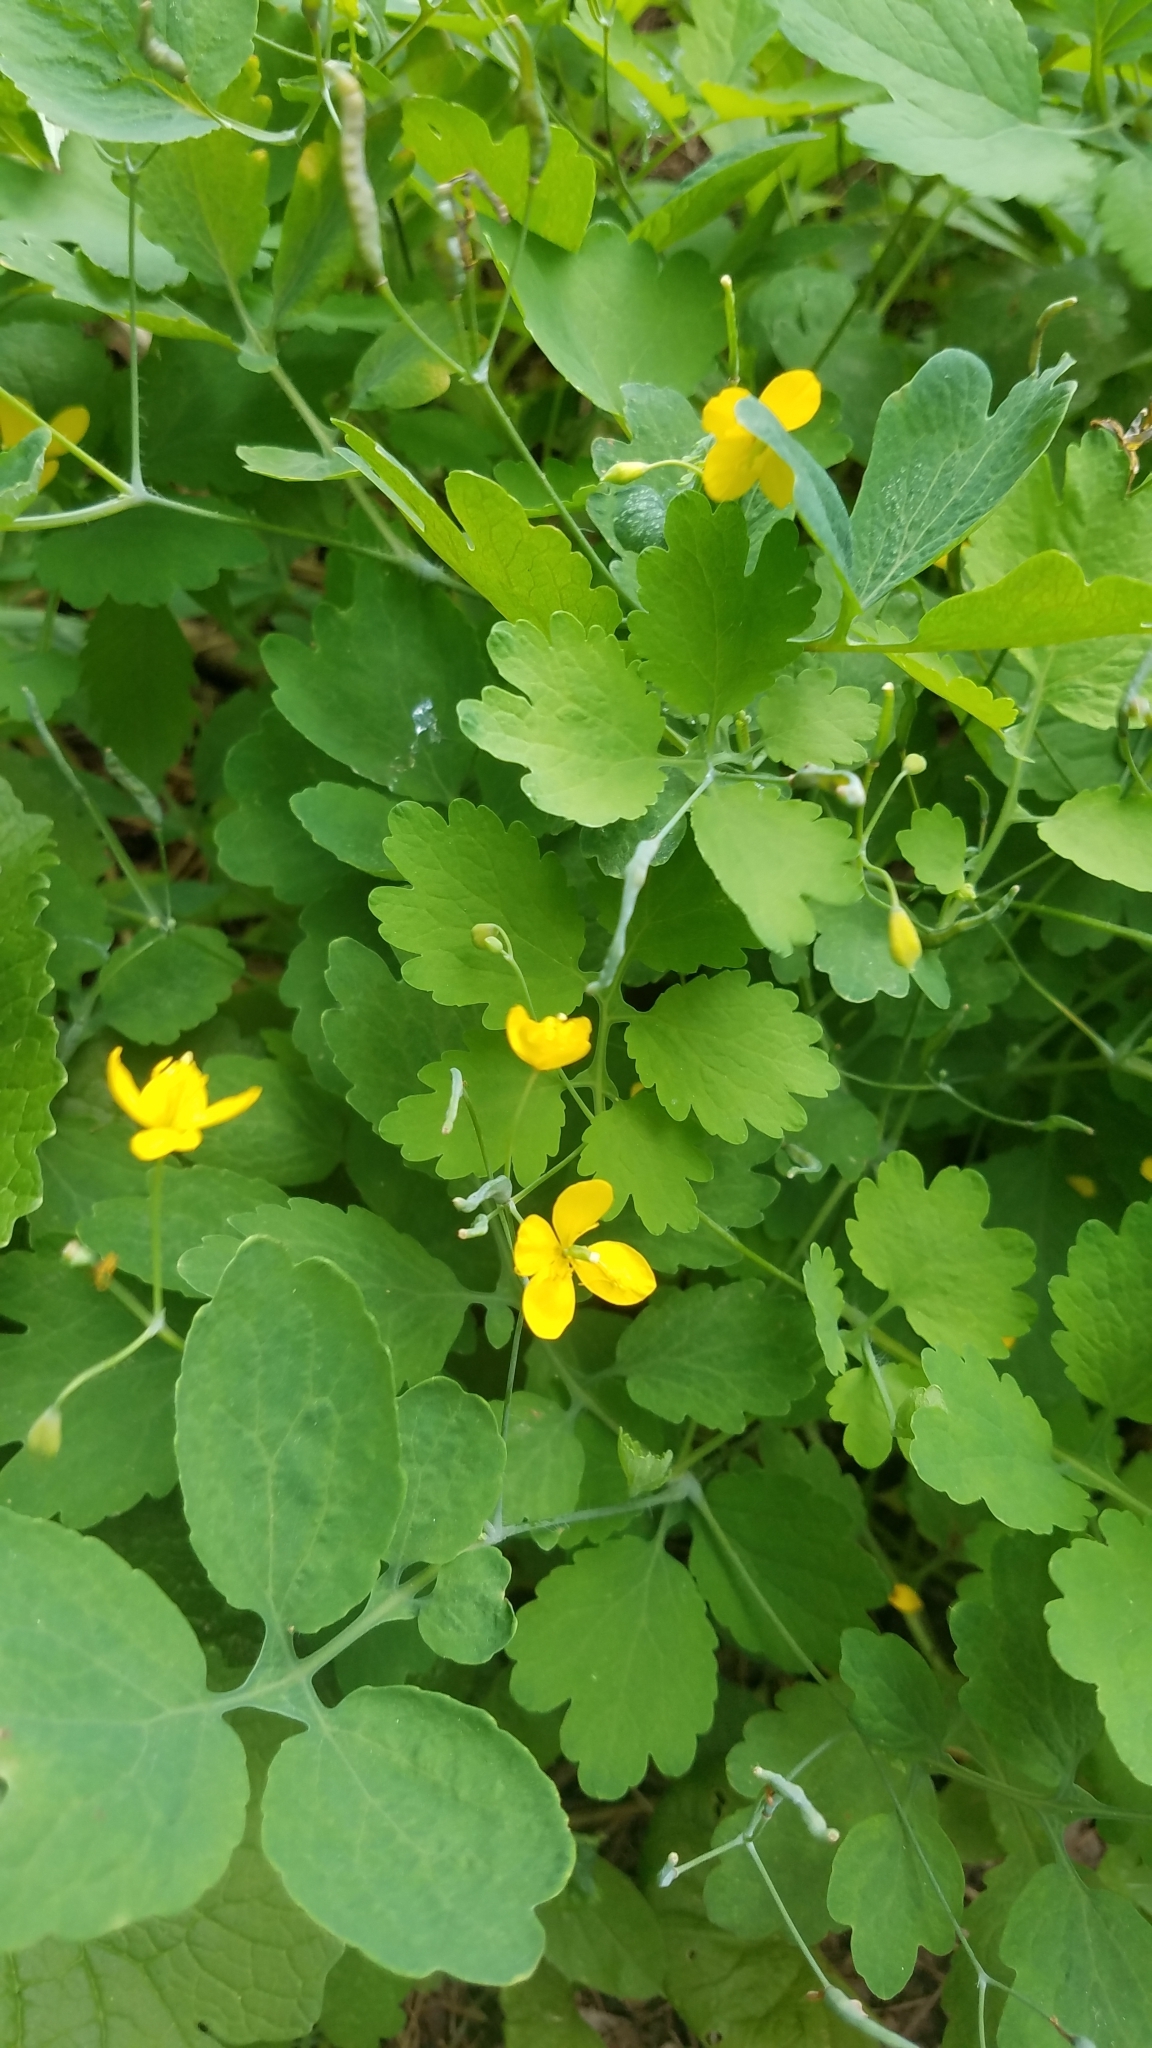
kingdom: Plantae
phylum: Tracheophyta
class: Magnoliopsida
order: Ranunculales
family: Papaveraceae
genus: Chelidonium
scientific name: Chelidonium majus
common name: Greater celandine
